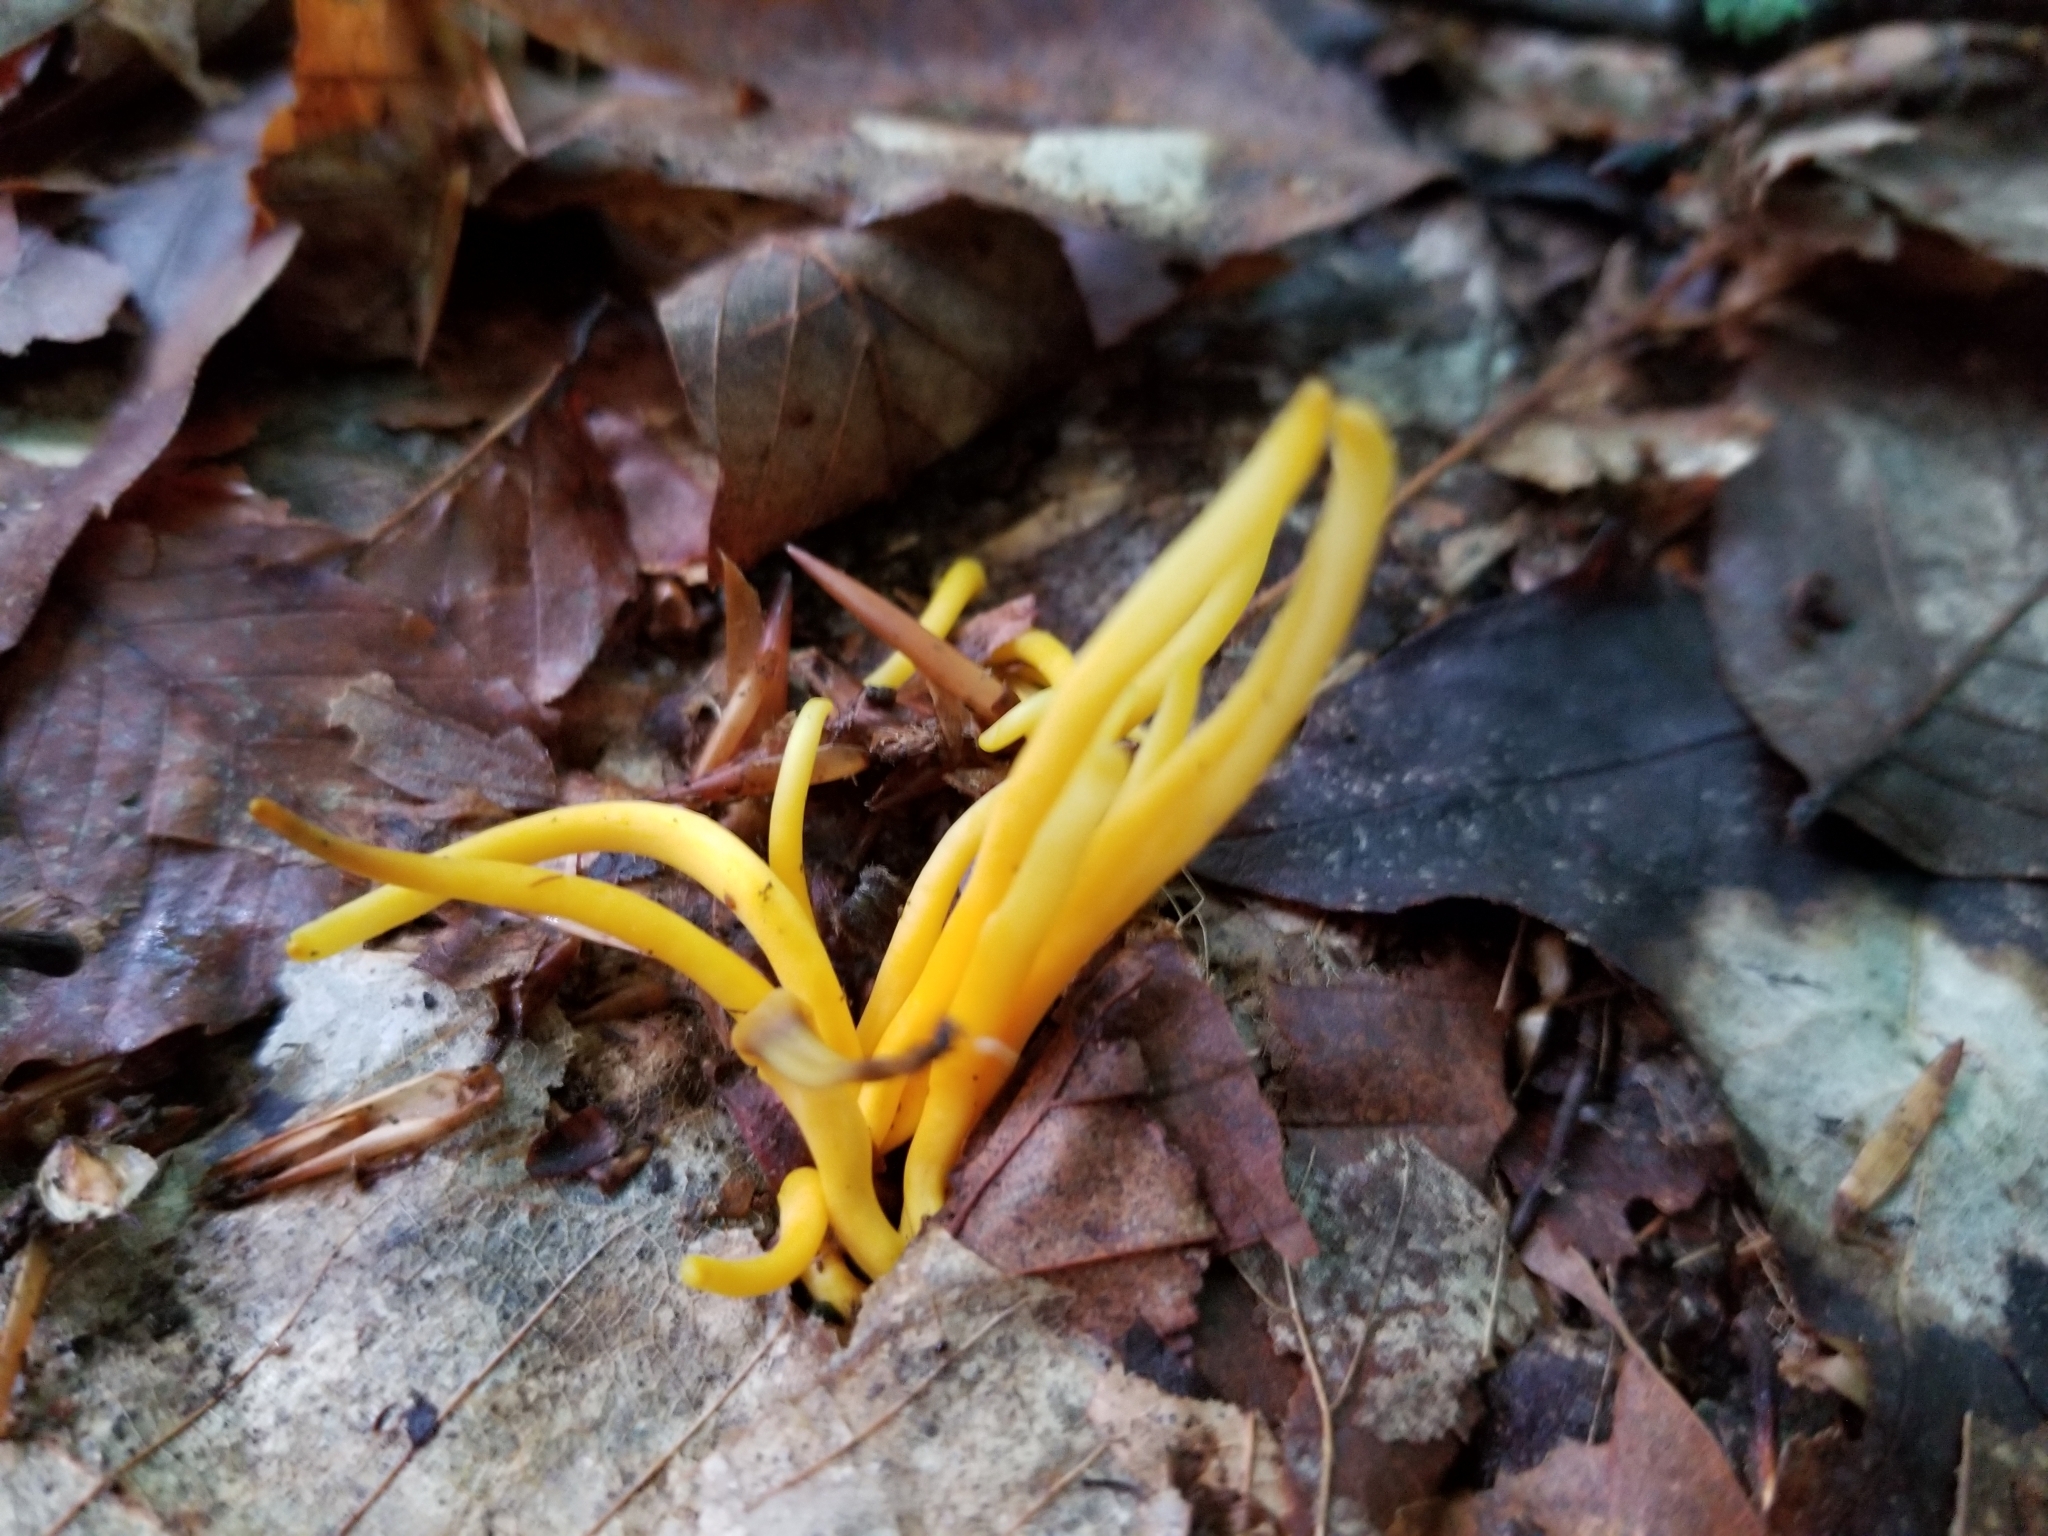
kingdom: Fungi
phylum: Basidiomycota
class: Agaricomycetes
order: Agaricales
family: Clavariaceae
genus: Clavulinopsis
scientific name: Clavulinopsis fusiformis
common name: Golden spindles
